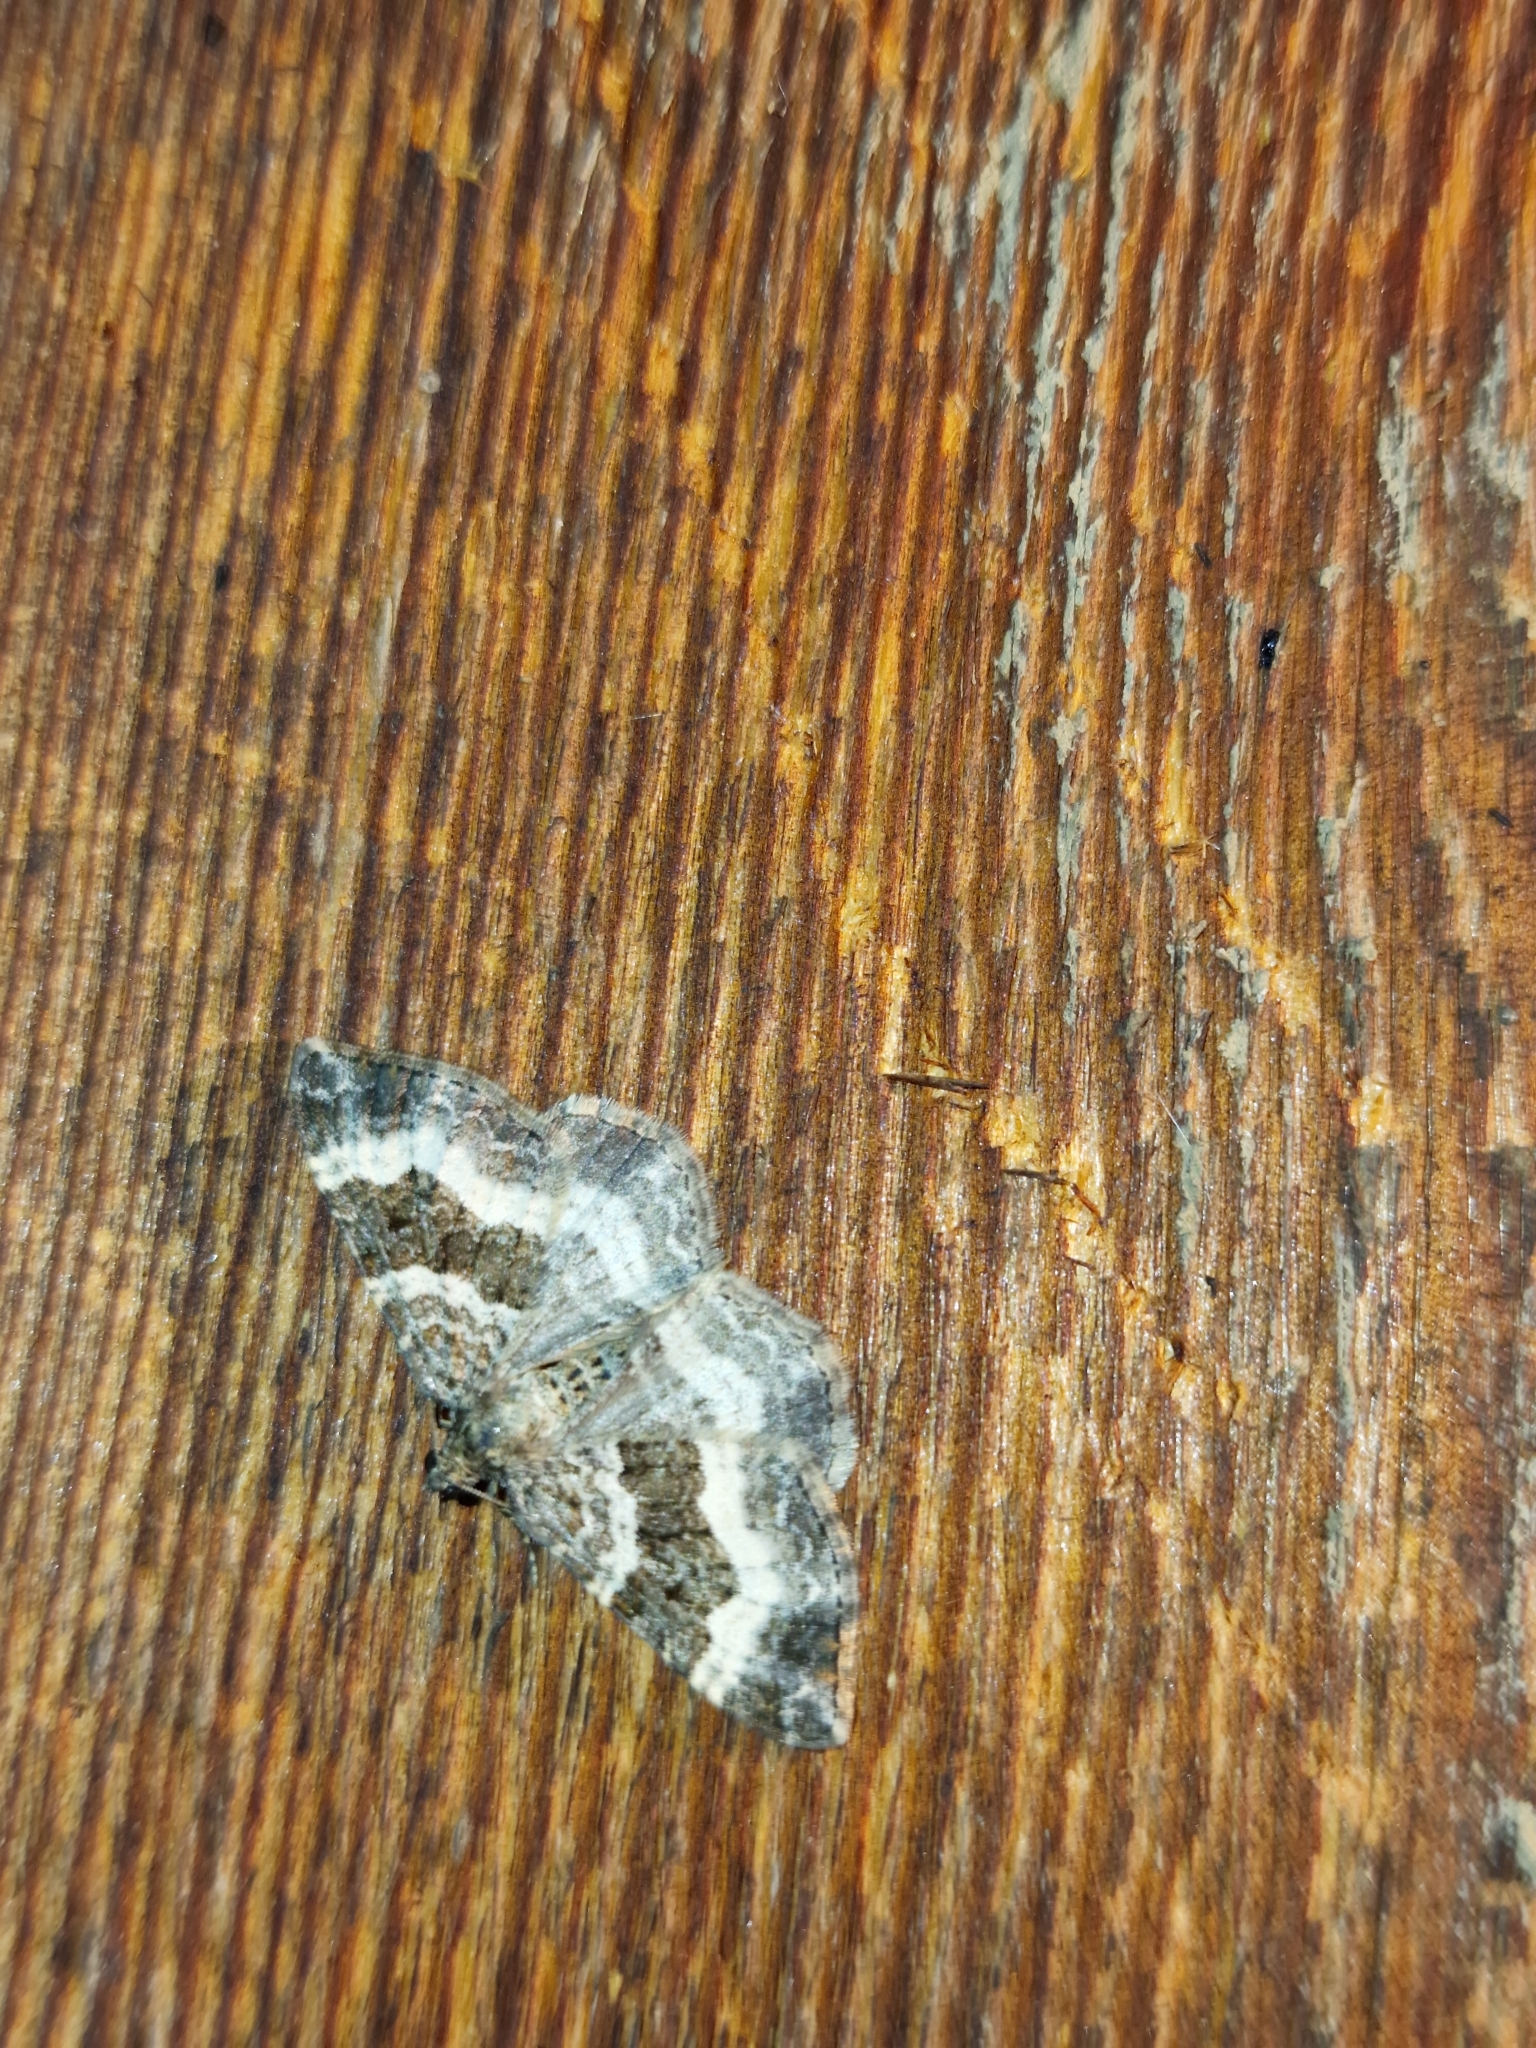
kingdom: Animalia
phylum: Arthropoda
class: Insecta
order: Lepidoptera
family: Geometridae
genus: Epirrhoe
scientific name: Epirrhoe alternata
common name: Common carpet
